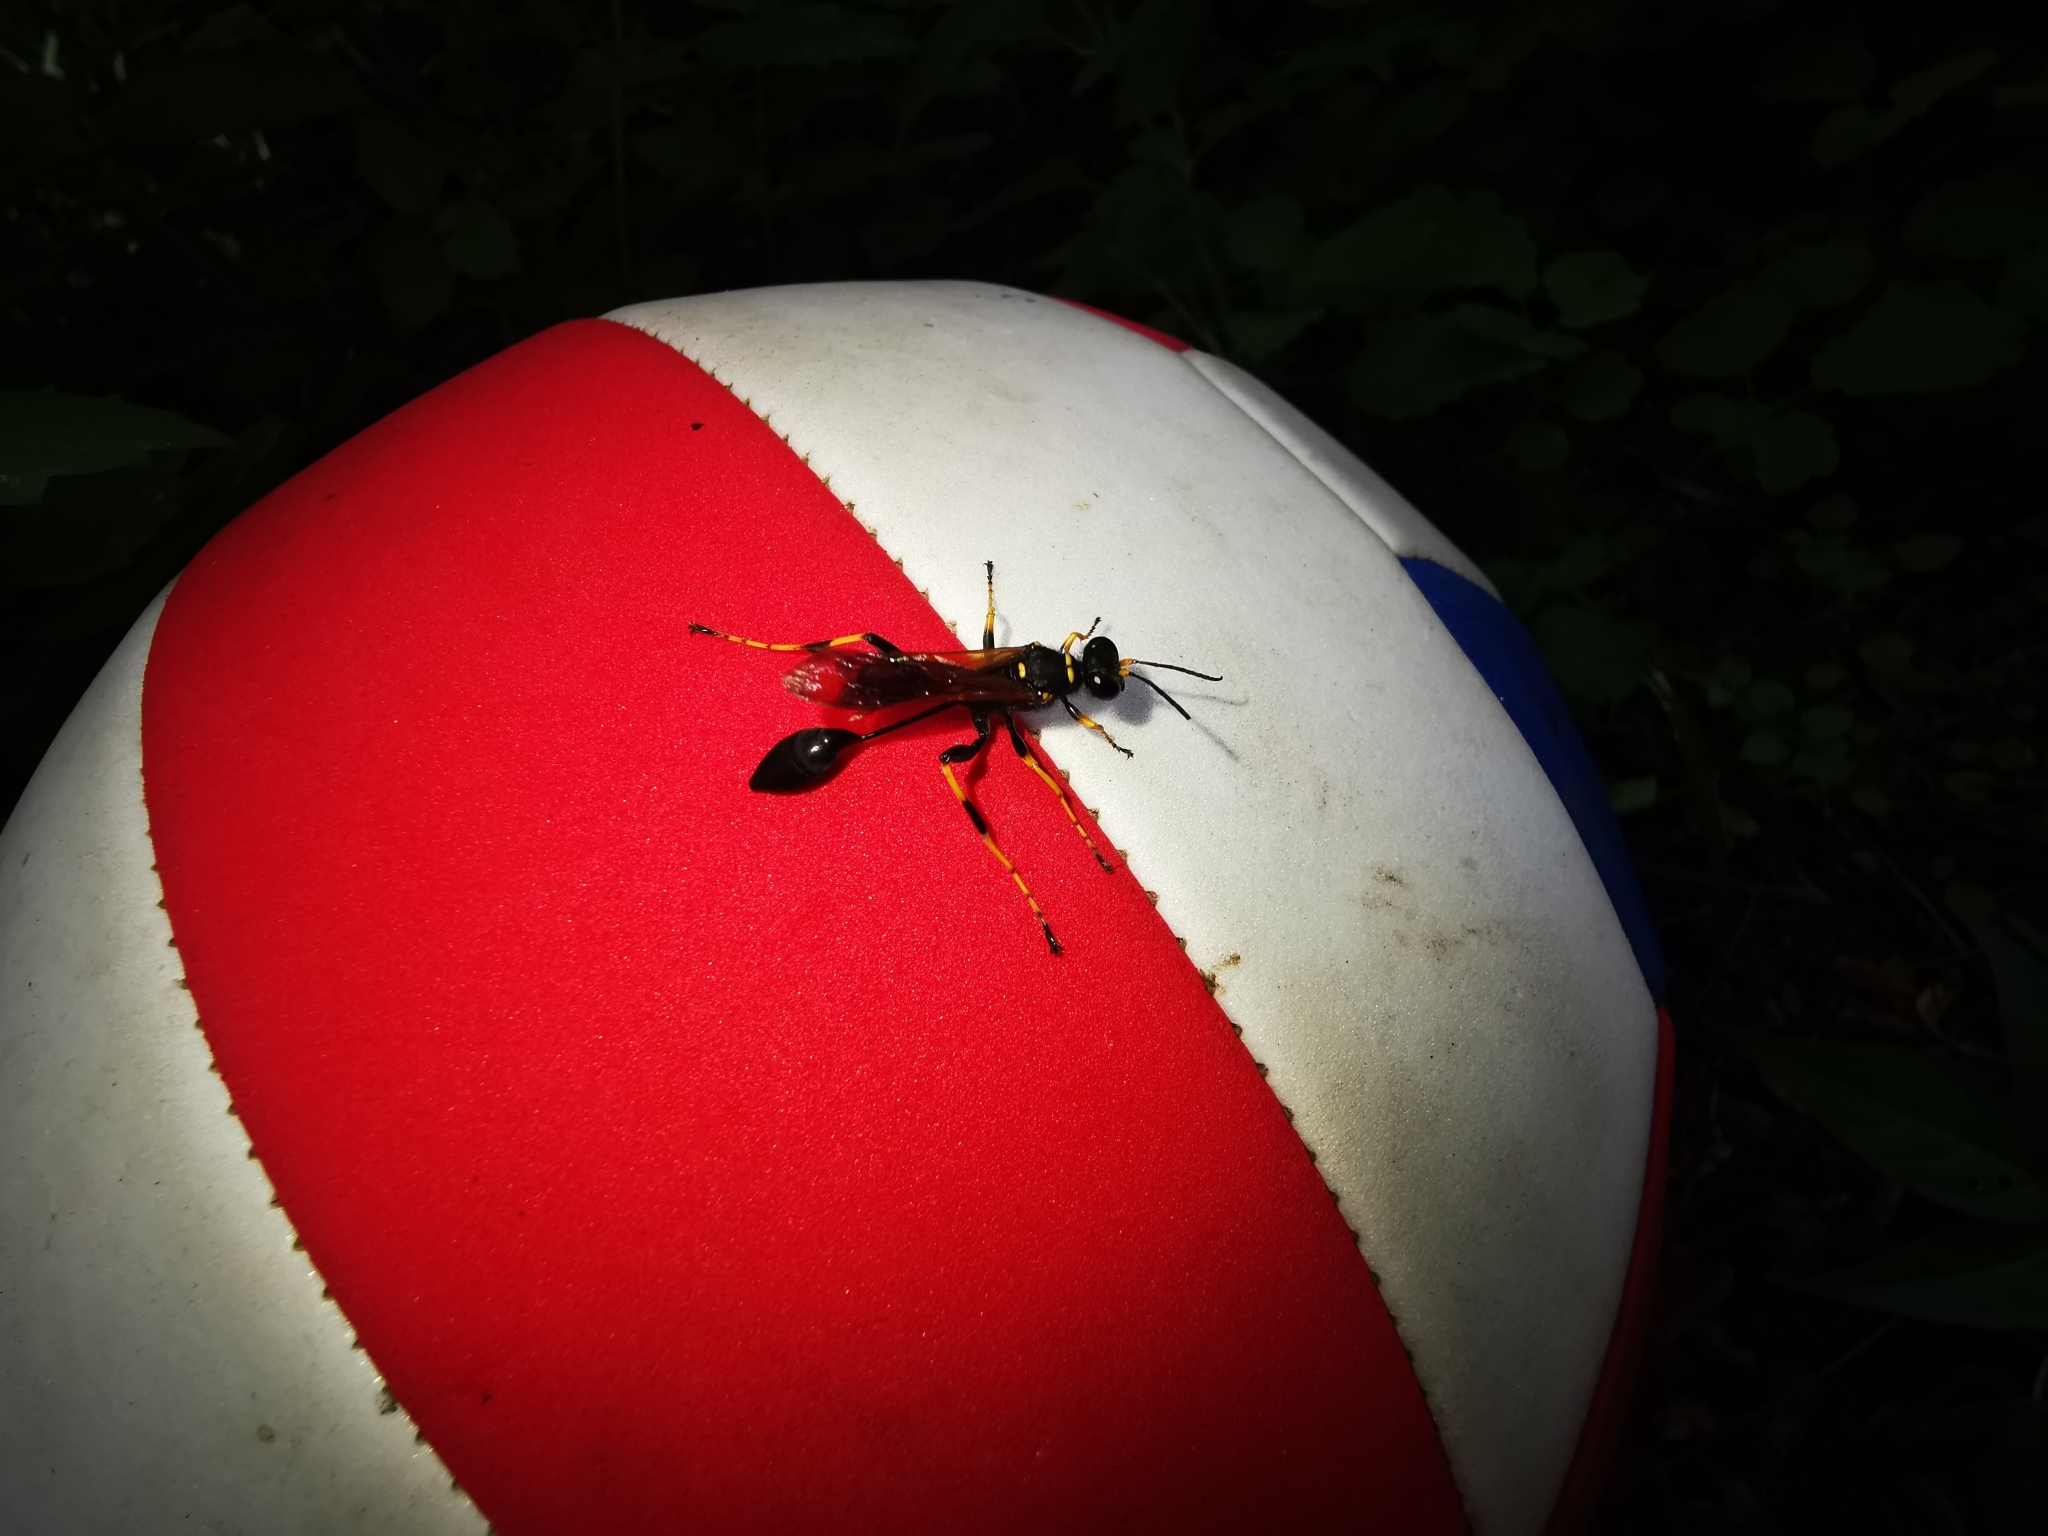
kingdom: Animalia
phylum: Arthropoda
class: Insecta
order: Hymenoptera
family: Sphecidae
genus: Sceliphron
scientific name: Sceliphron caementarium
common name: Mud dauber
